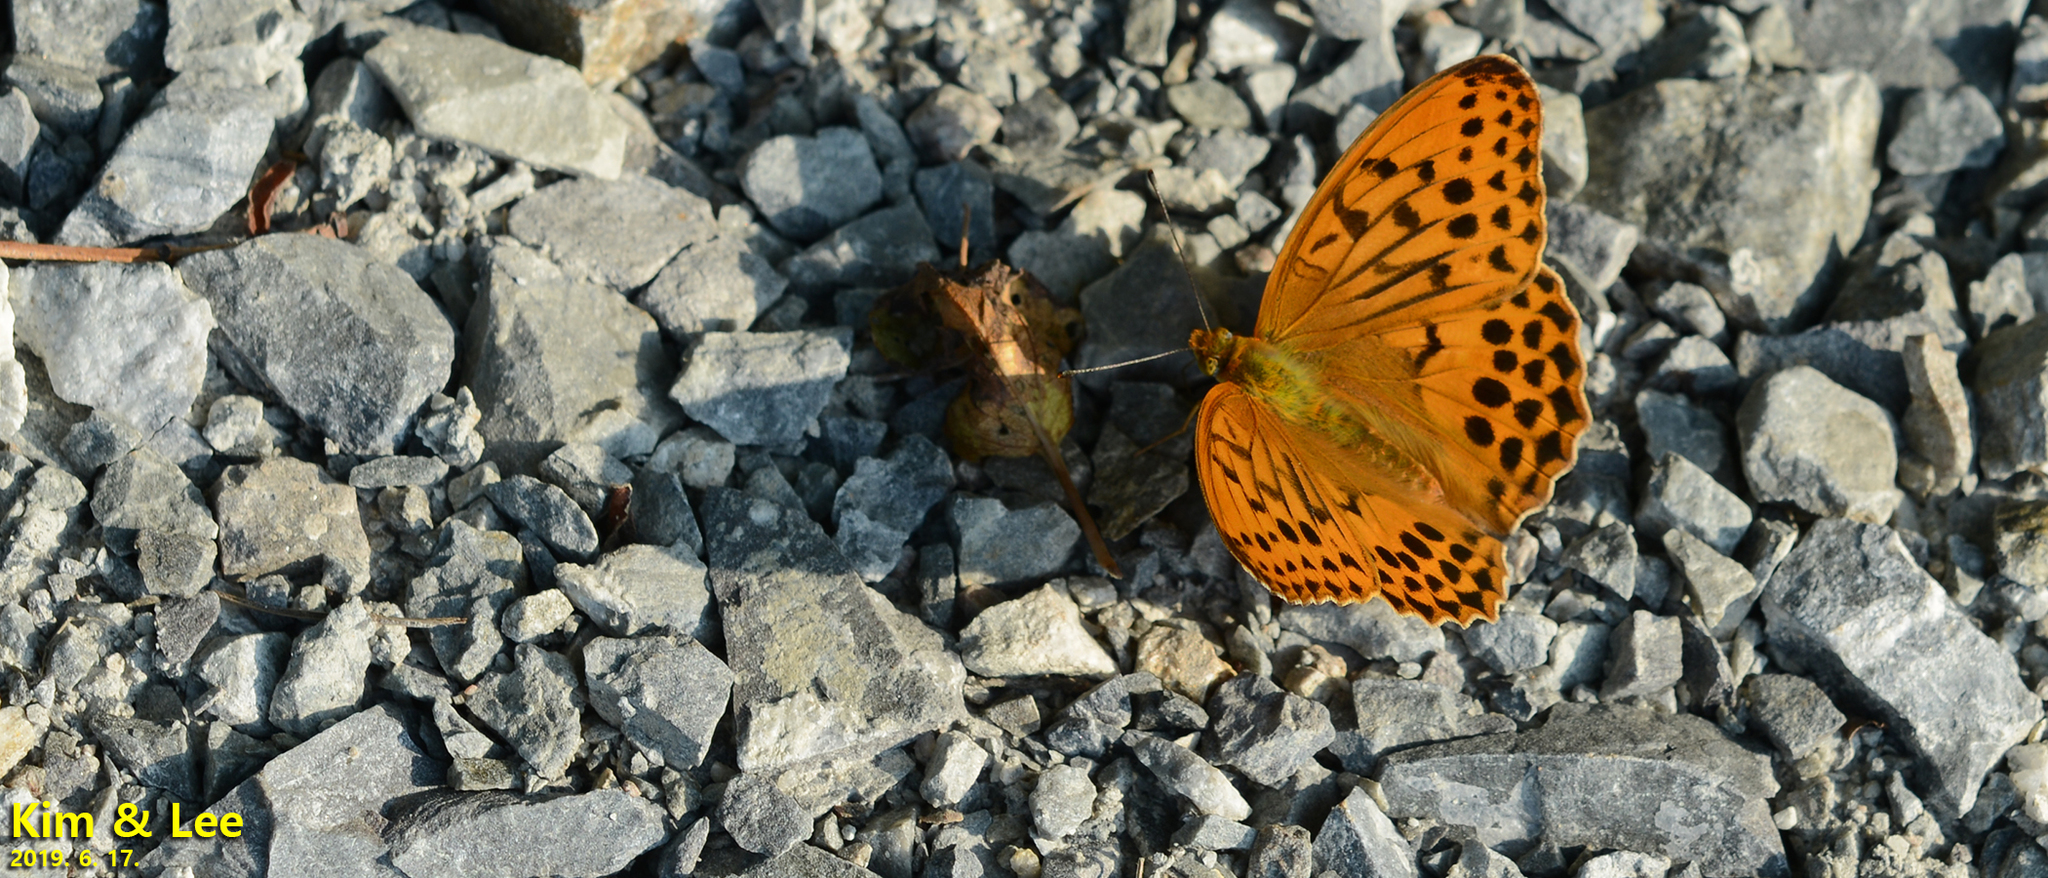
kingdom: Animalia
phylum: Arthropoda
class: Insecta
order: Lepidoptera
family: Nymphalidae
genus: Damora
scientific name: Damora sagana
